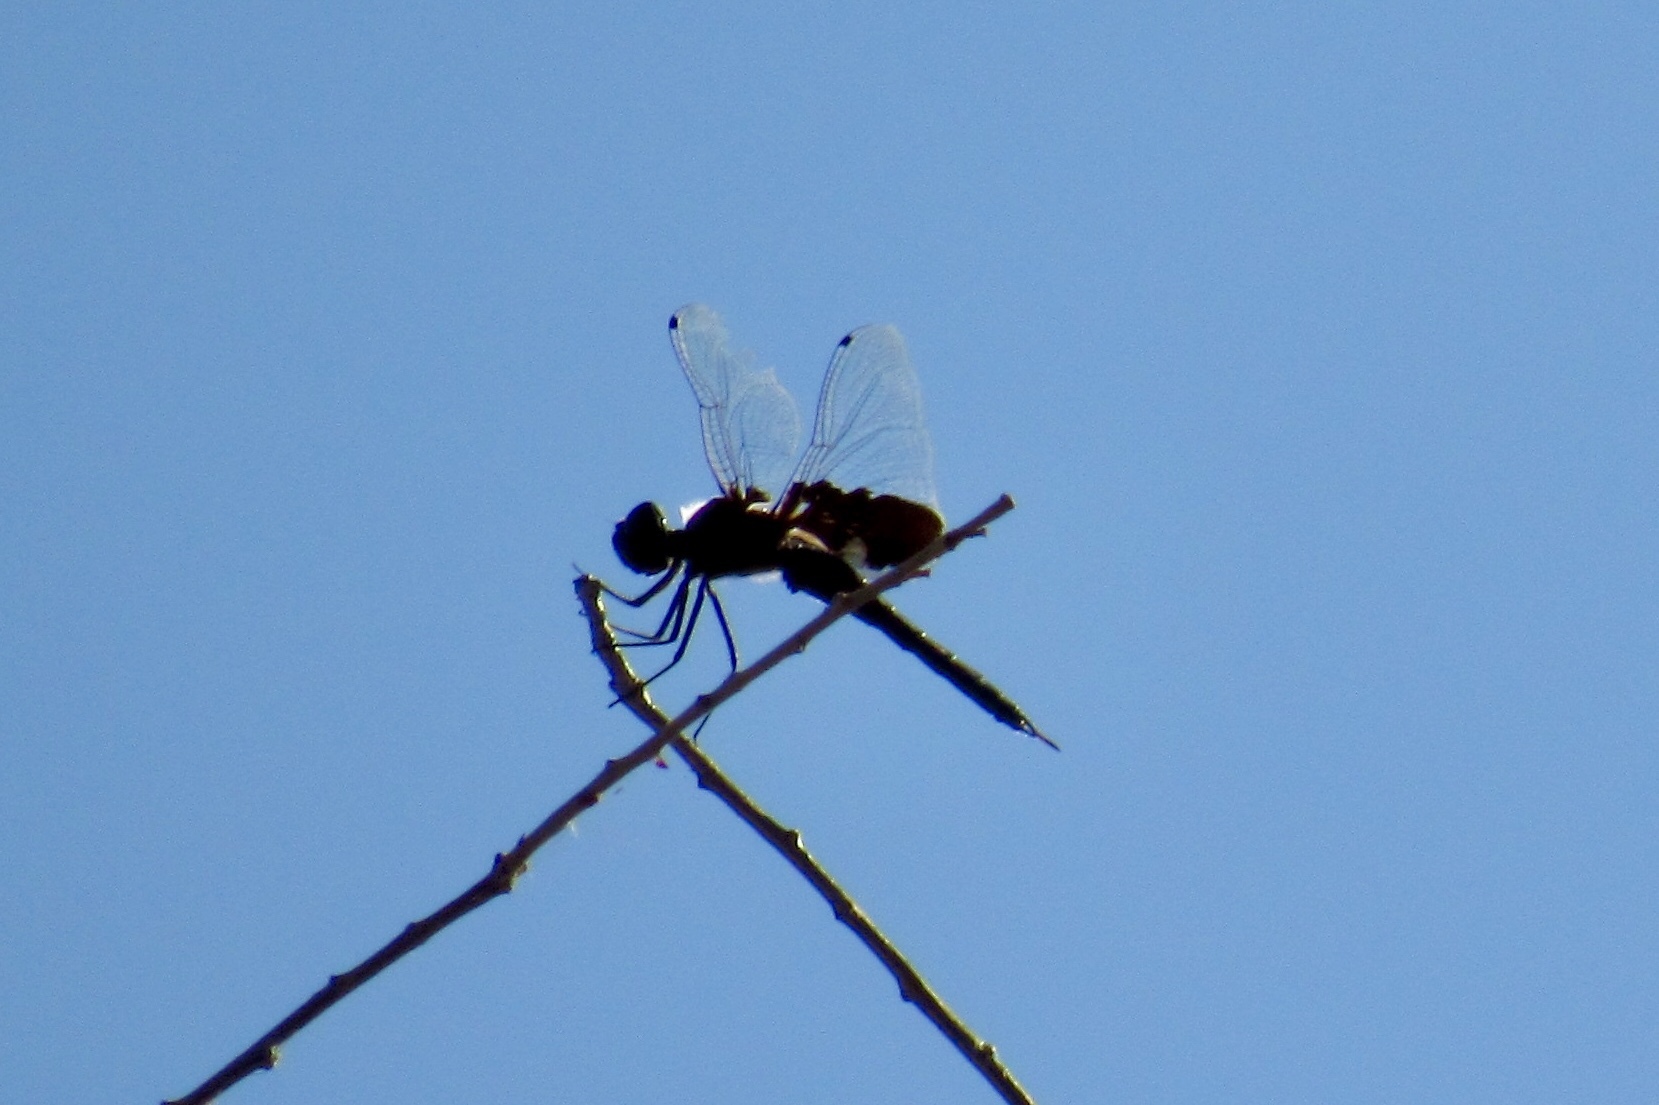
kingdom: Animalia
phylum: Arthropoda
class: Insecta
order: Odonata
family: Libellulidae
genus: Tramea
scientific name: Tramea lacerata
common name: Black saddlebags
